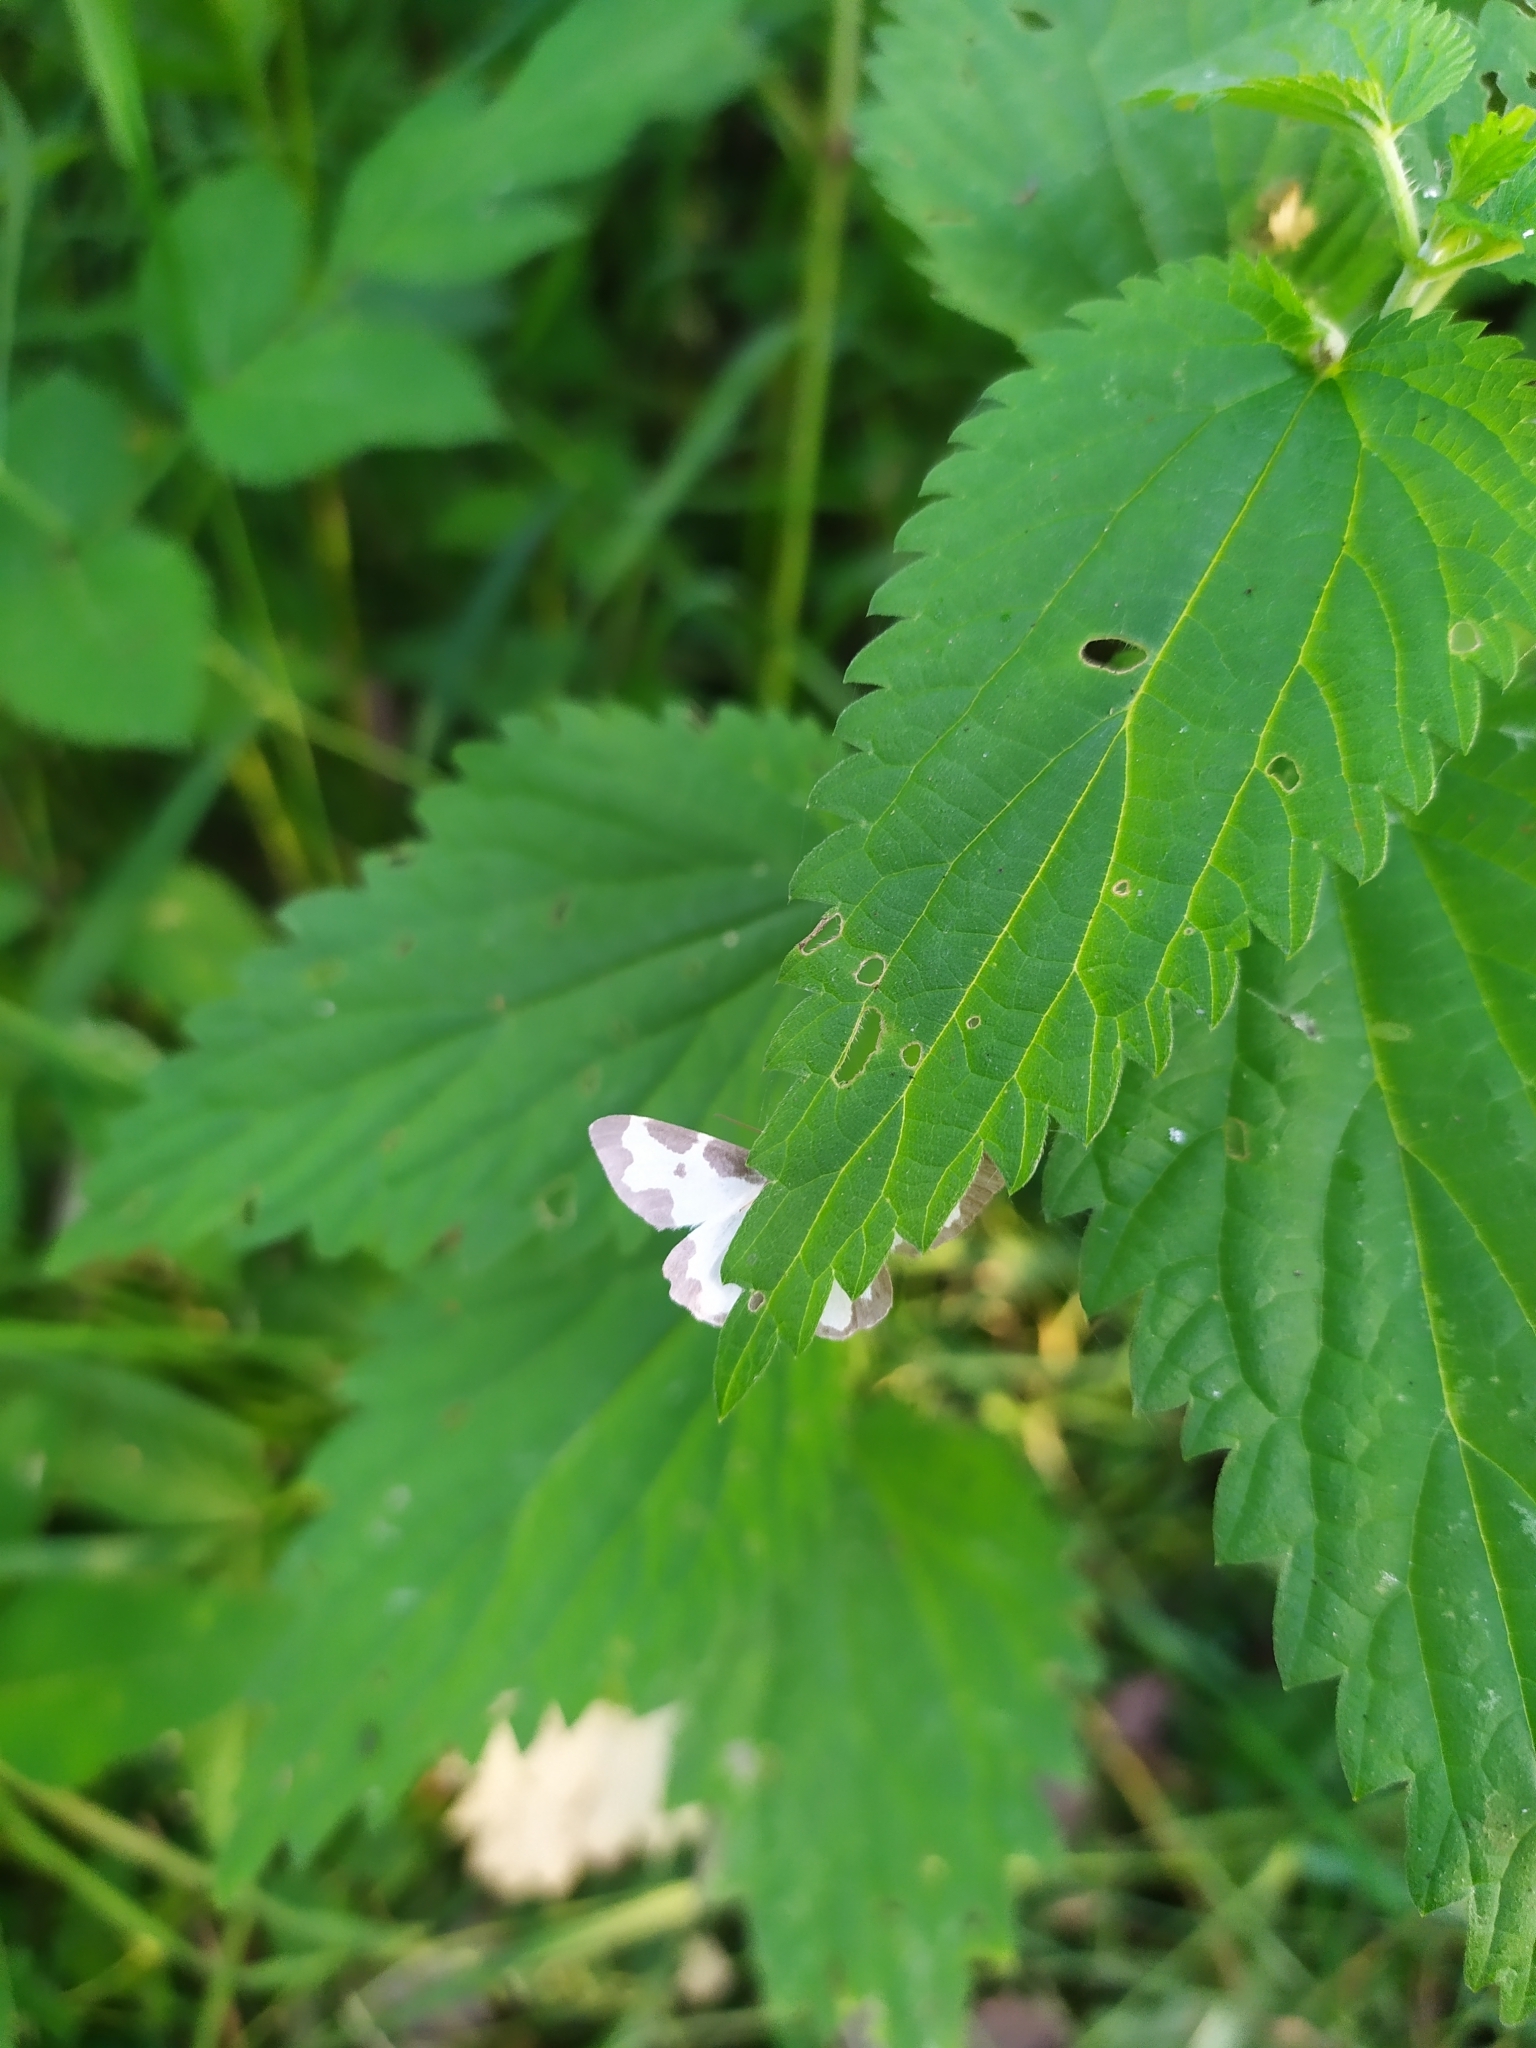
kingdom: Animalia
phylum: Arthropoda
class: Insecta
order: Lepidoptera
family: Geometridae
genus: Lomaspilis
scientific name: Lomaspilis marginata
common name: Clouded border
